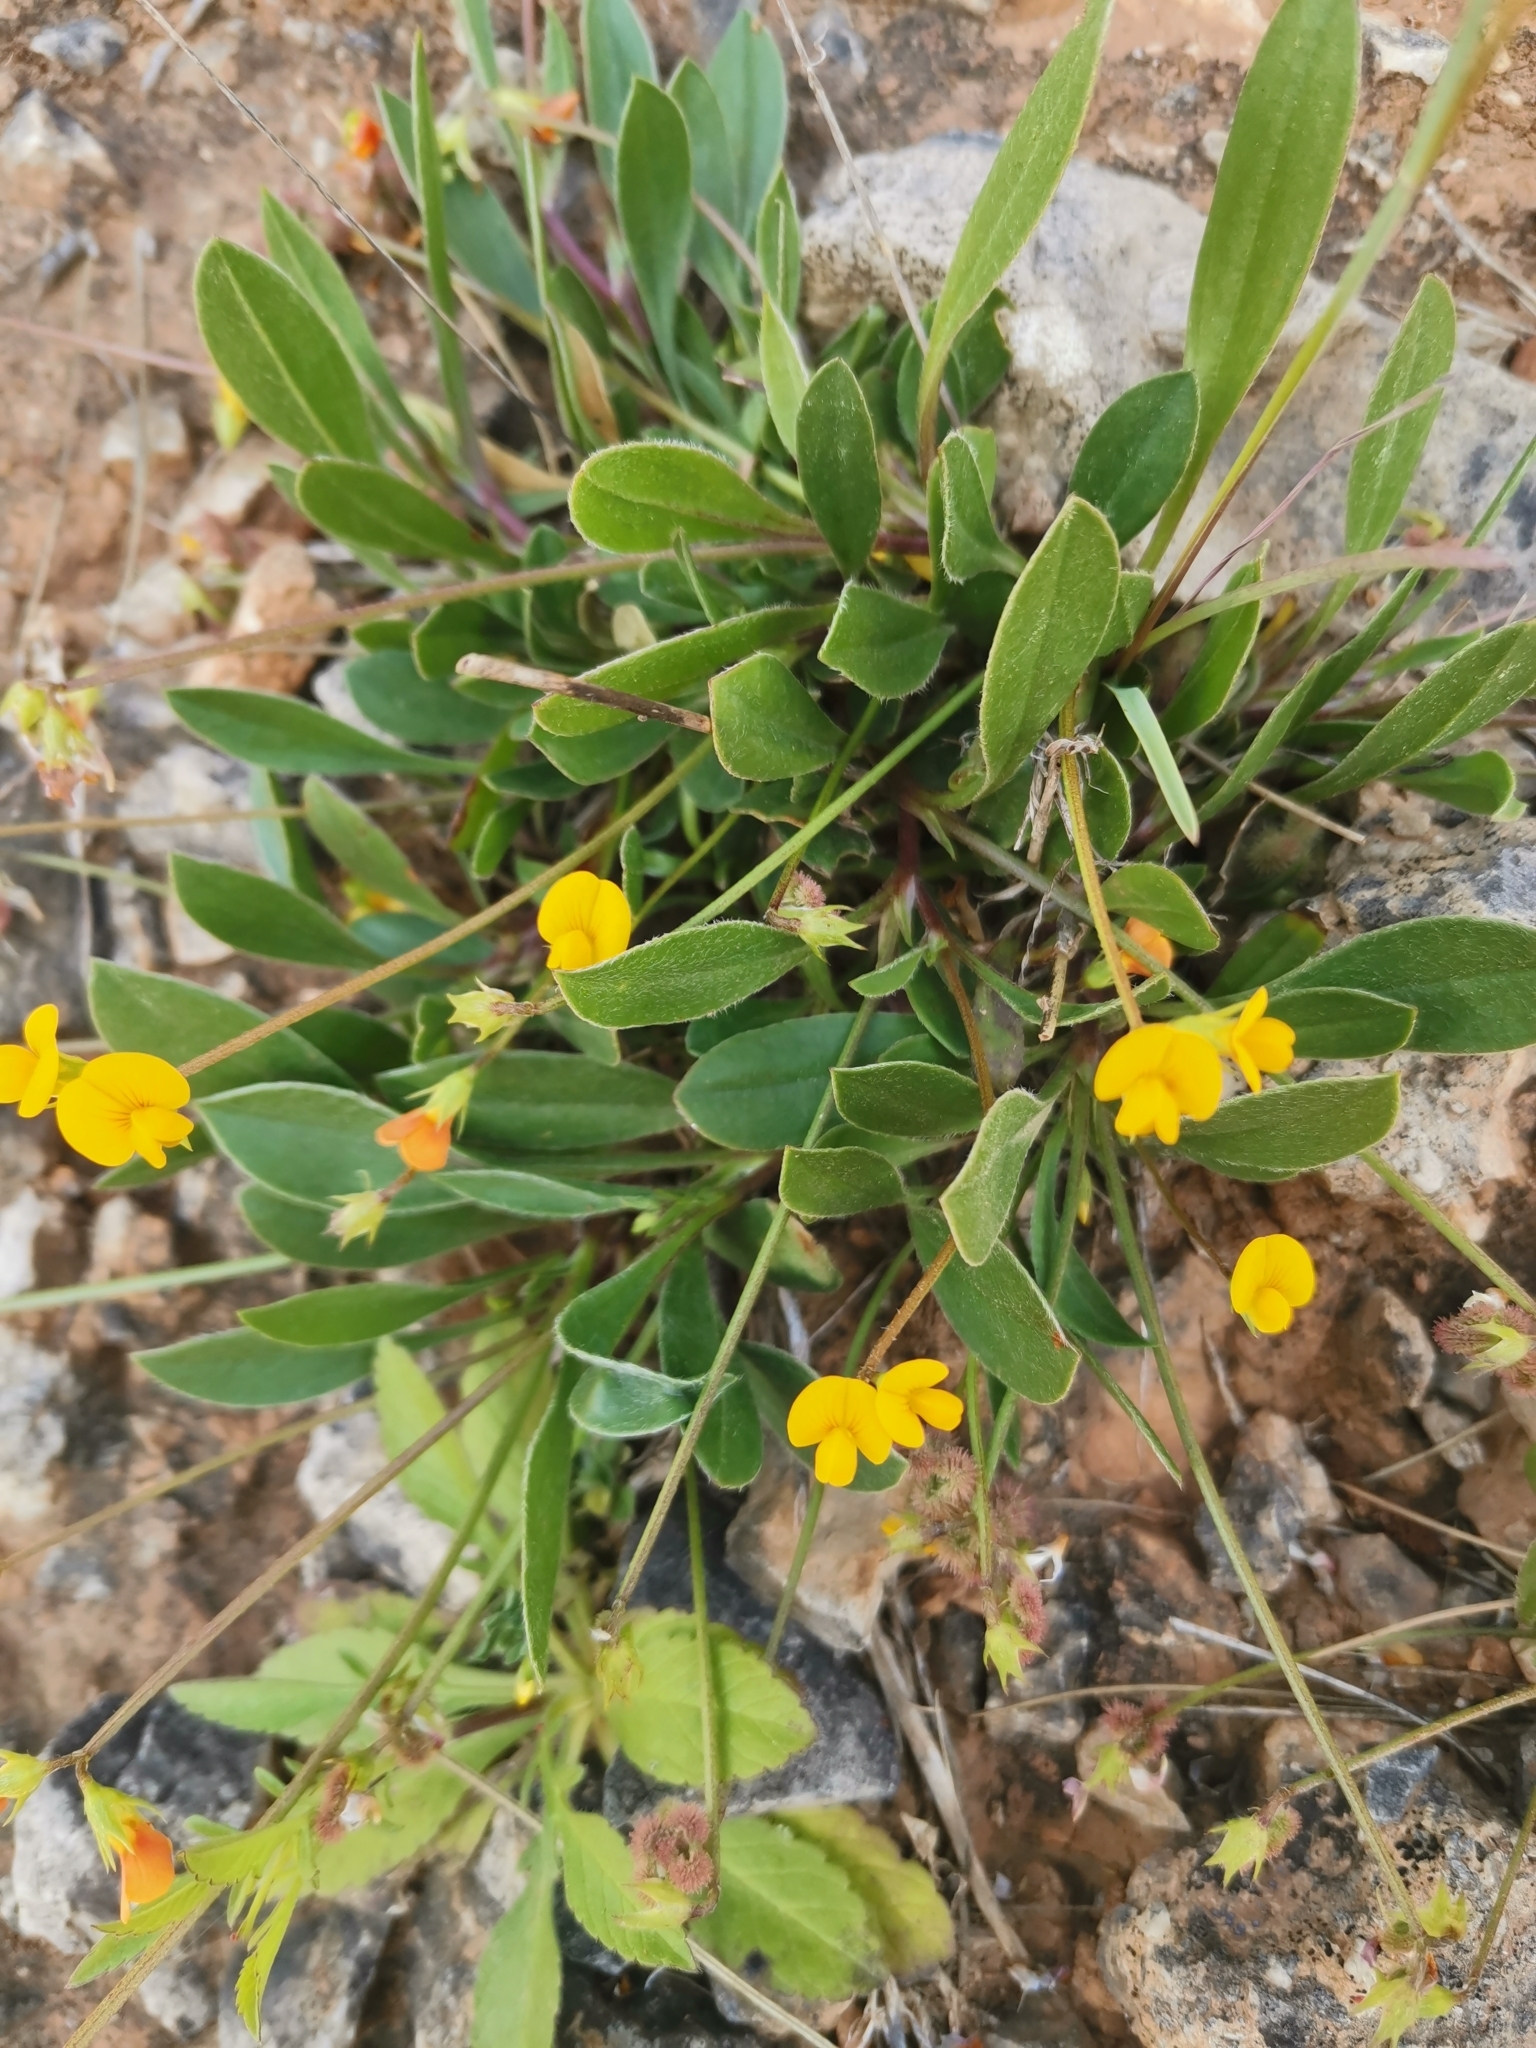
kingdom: Plantae
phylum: Tracheophyta
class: Magnoliopsida
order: Fabales
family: Fabaceae
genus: Scorpiurus
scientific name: Scorpiurus muricatus
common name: Caterpillar-plant
